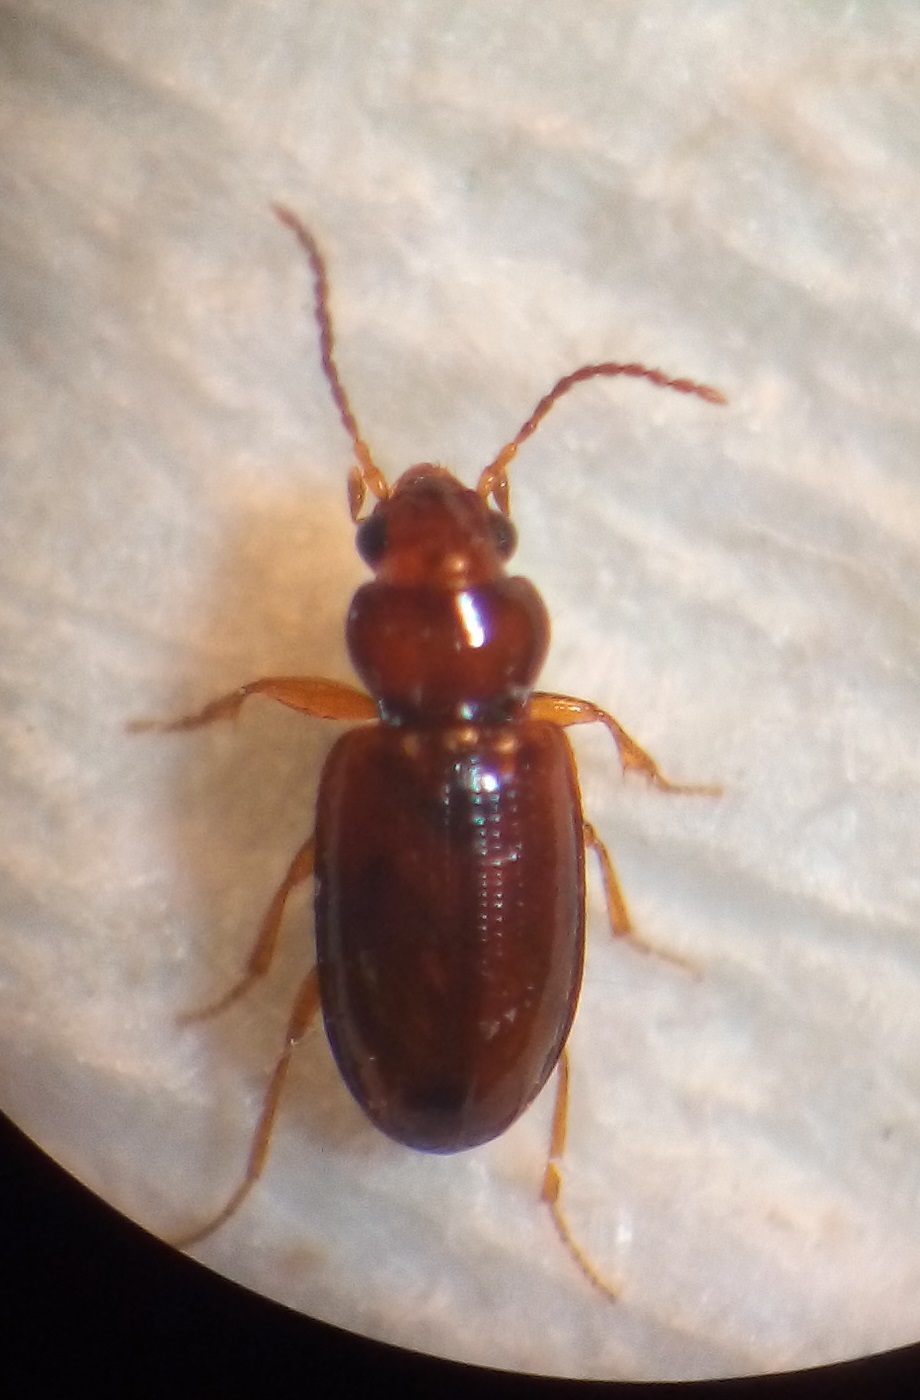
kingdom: Animalia
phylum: Arthropoda
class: Insecta
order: Coleoptera
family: Carabidae
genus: Pericompsus
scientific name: Pericompsus australis
